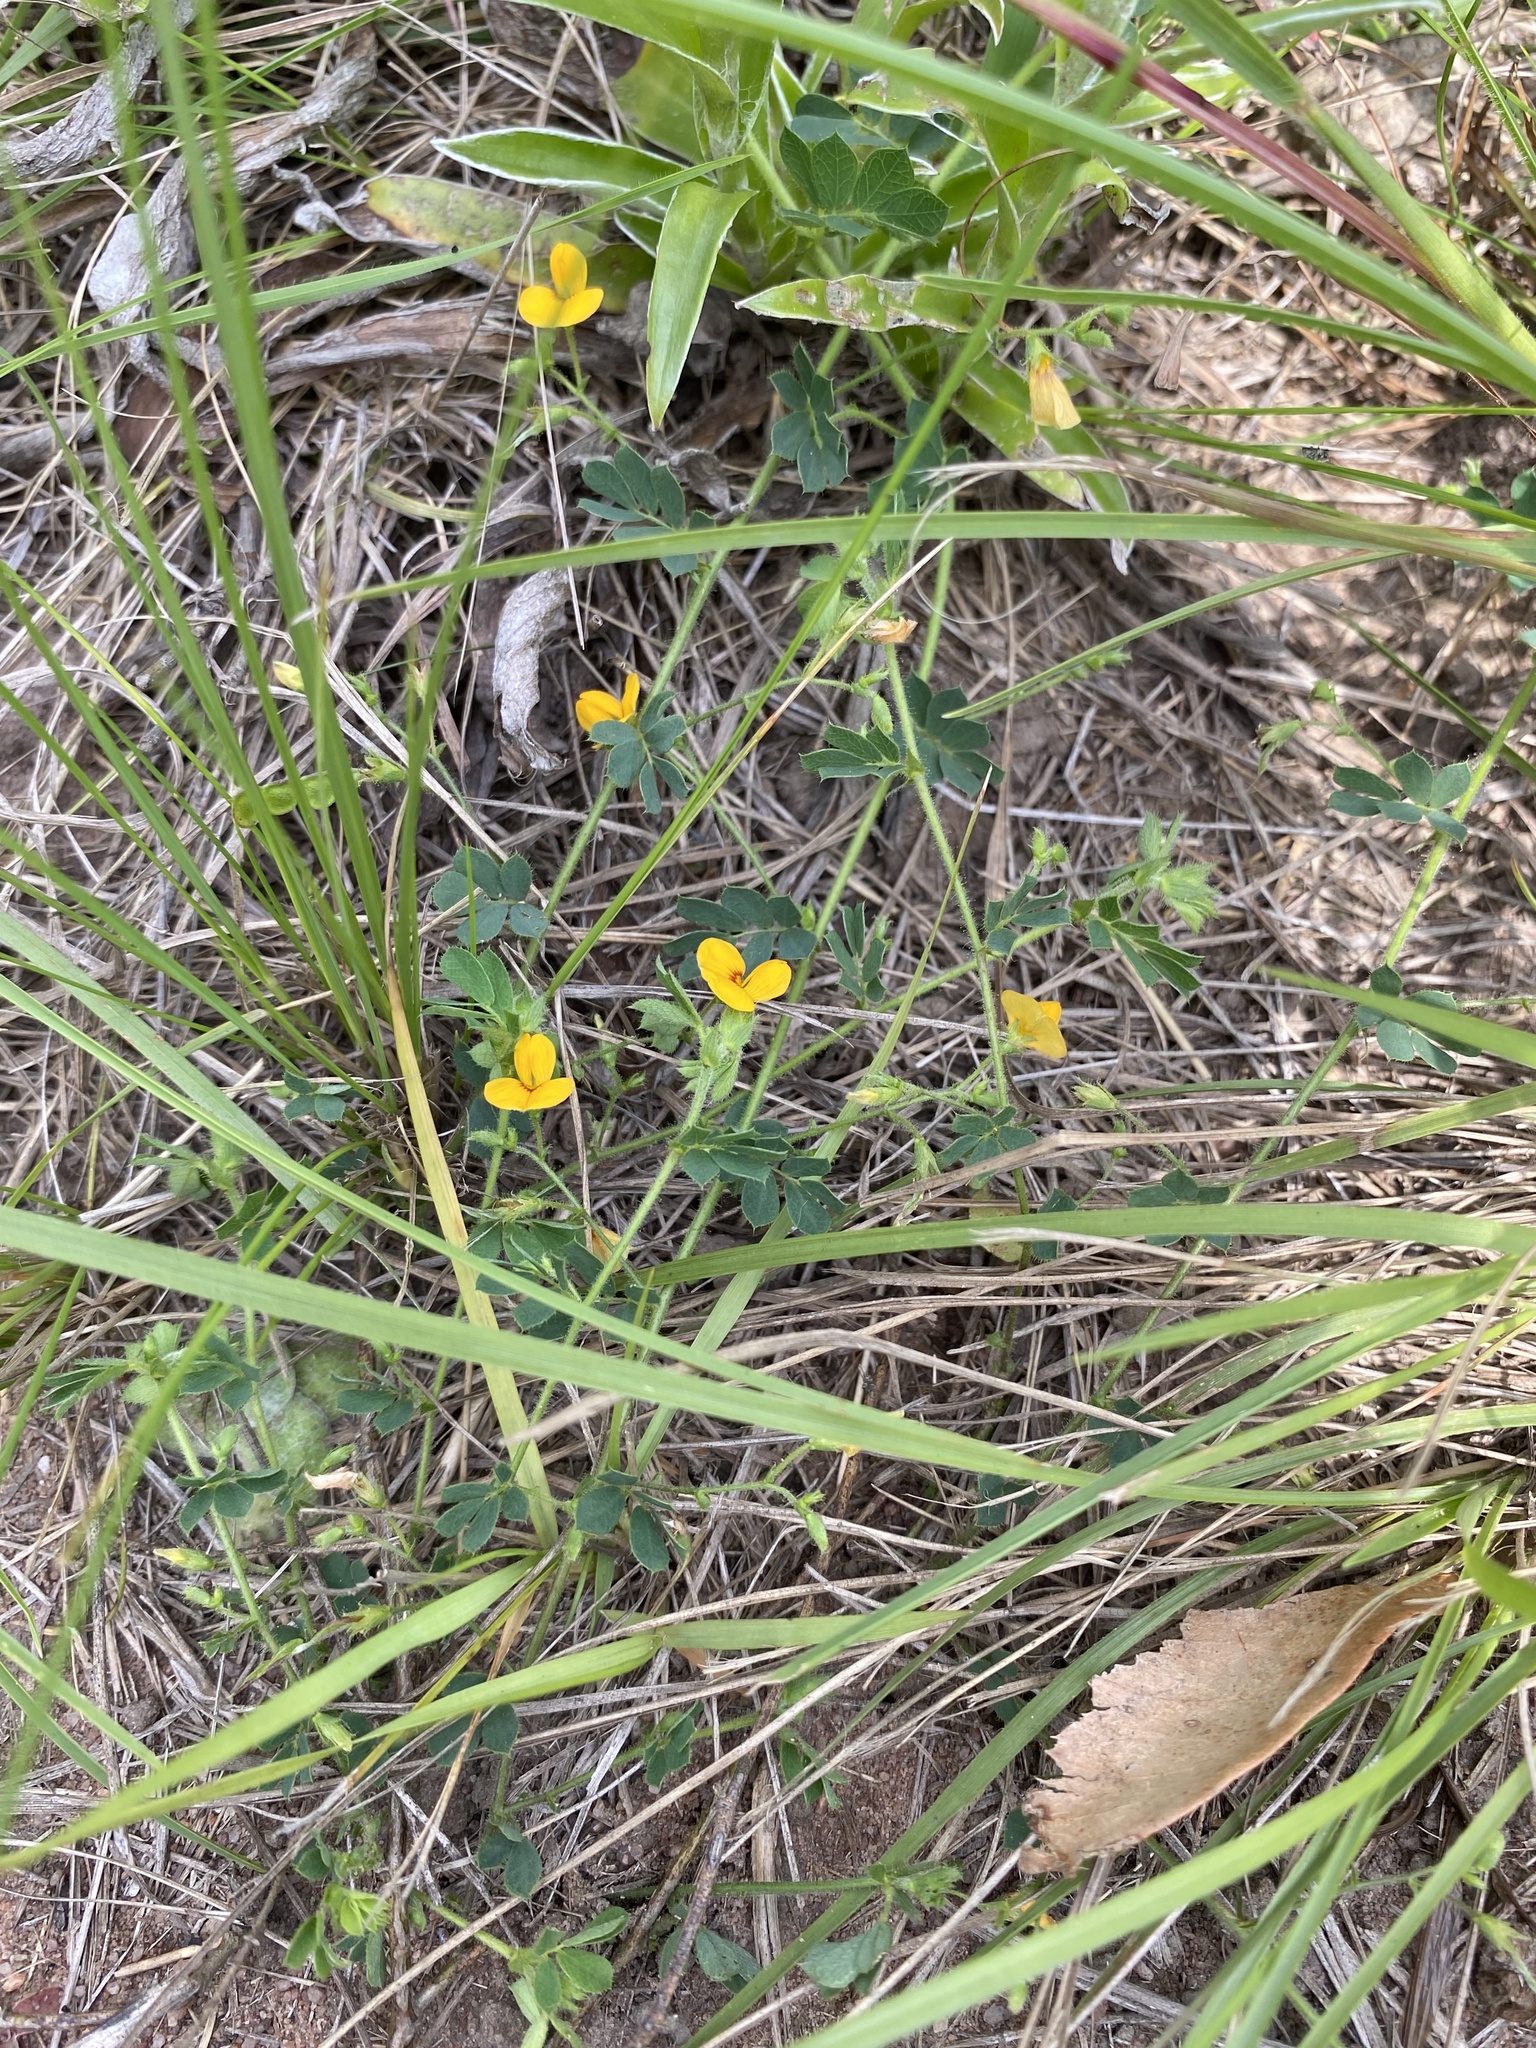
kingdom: Plantae
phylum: Tracheophyta
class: Magnoliopsida
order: Fabales
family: Fabaceae
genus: Aeschynomene
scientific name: Aeschynomene brevifolia
